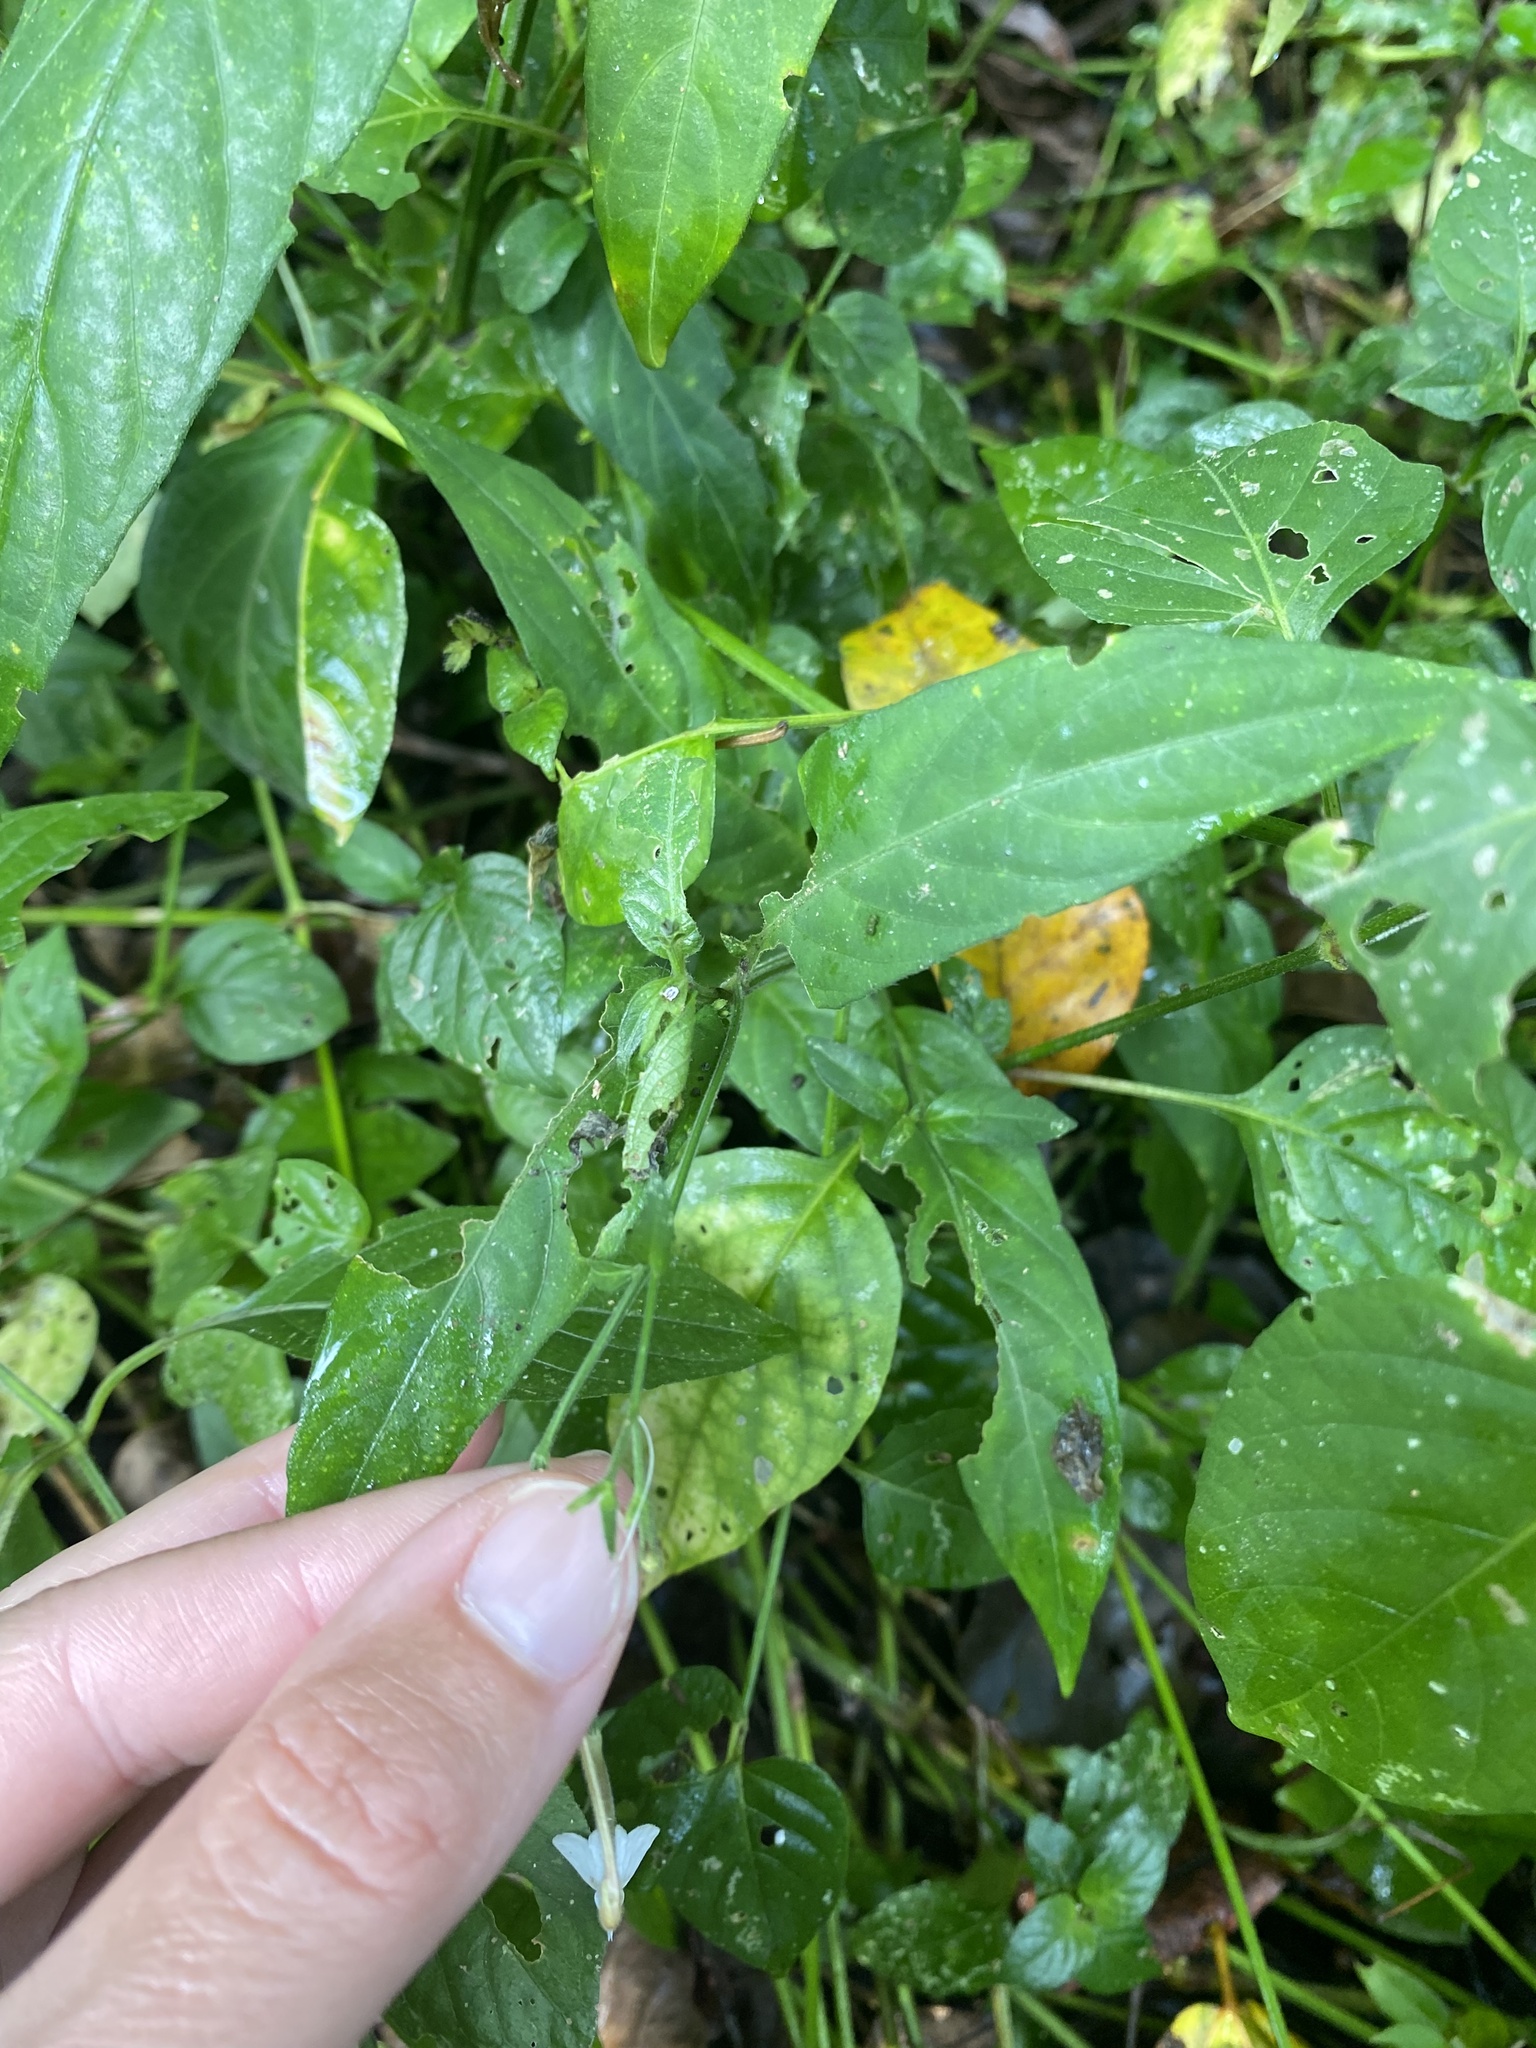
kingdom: Plantae
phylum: Tracheophyta
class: Magnoliopsida
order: Lamiales
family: Acanthaceae
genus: Rhinacanthus
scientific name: Rhinacanthus gracilis
